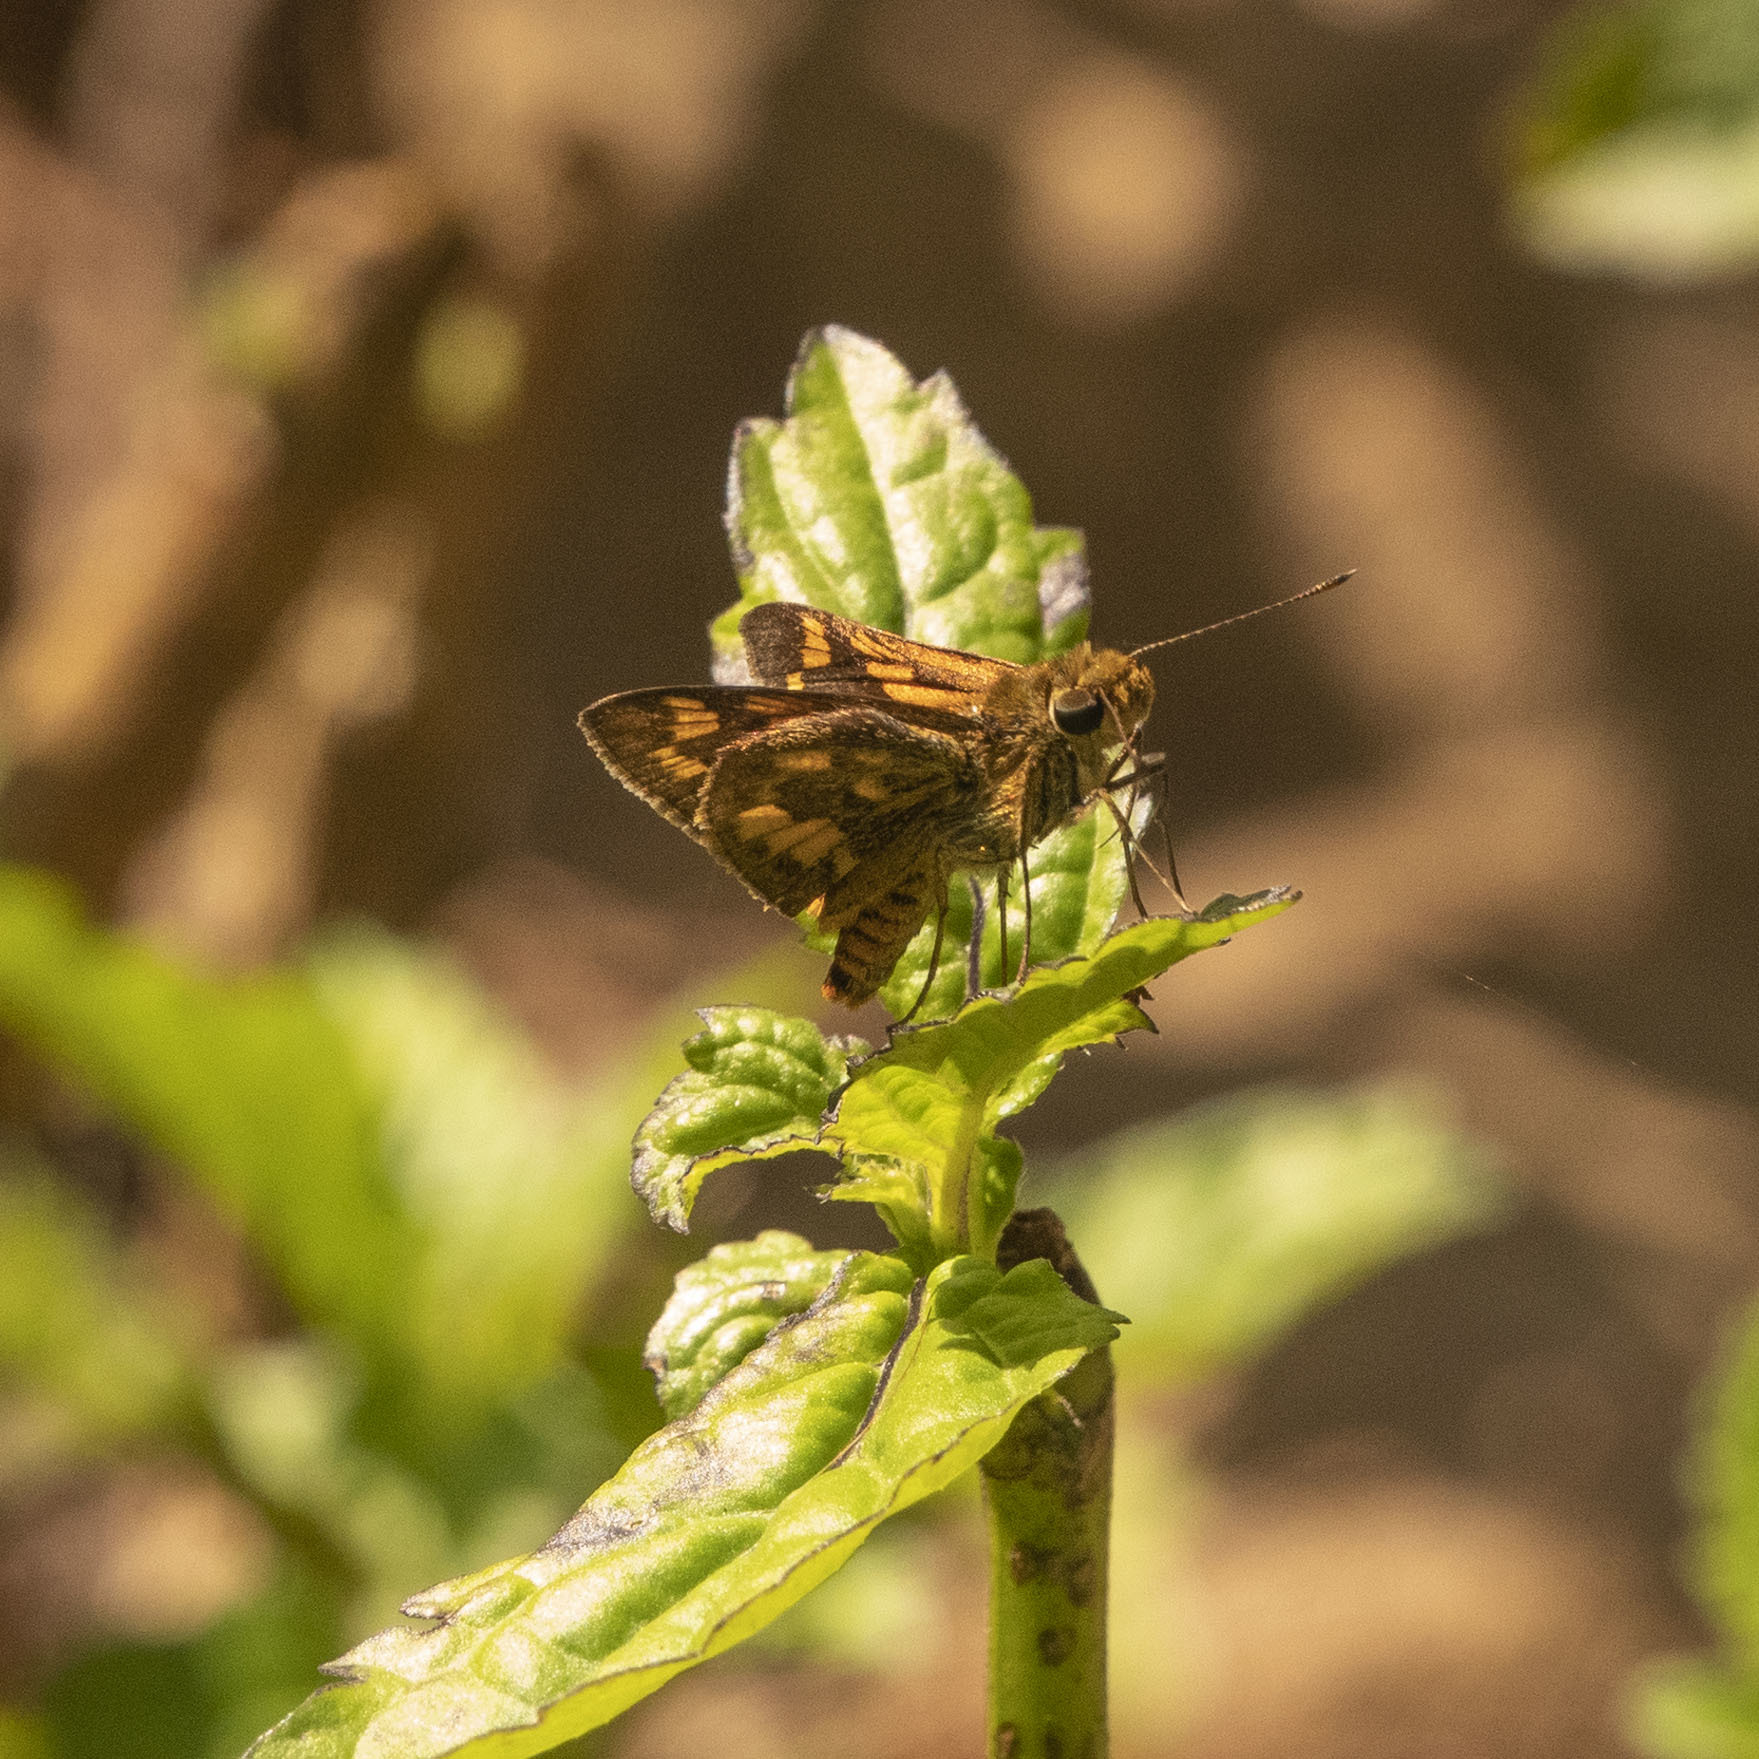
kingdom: Animalia
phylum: Arthropoda
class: Insecta
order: Lepidoptera
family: Hesperiidae
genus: Potanthus
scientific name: Potanthus palnia
